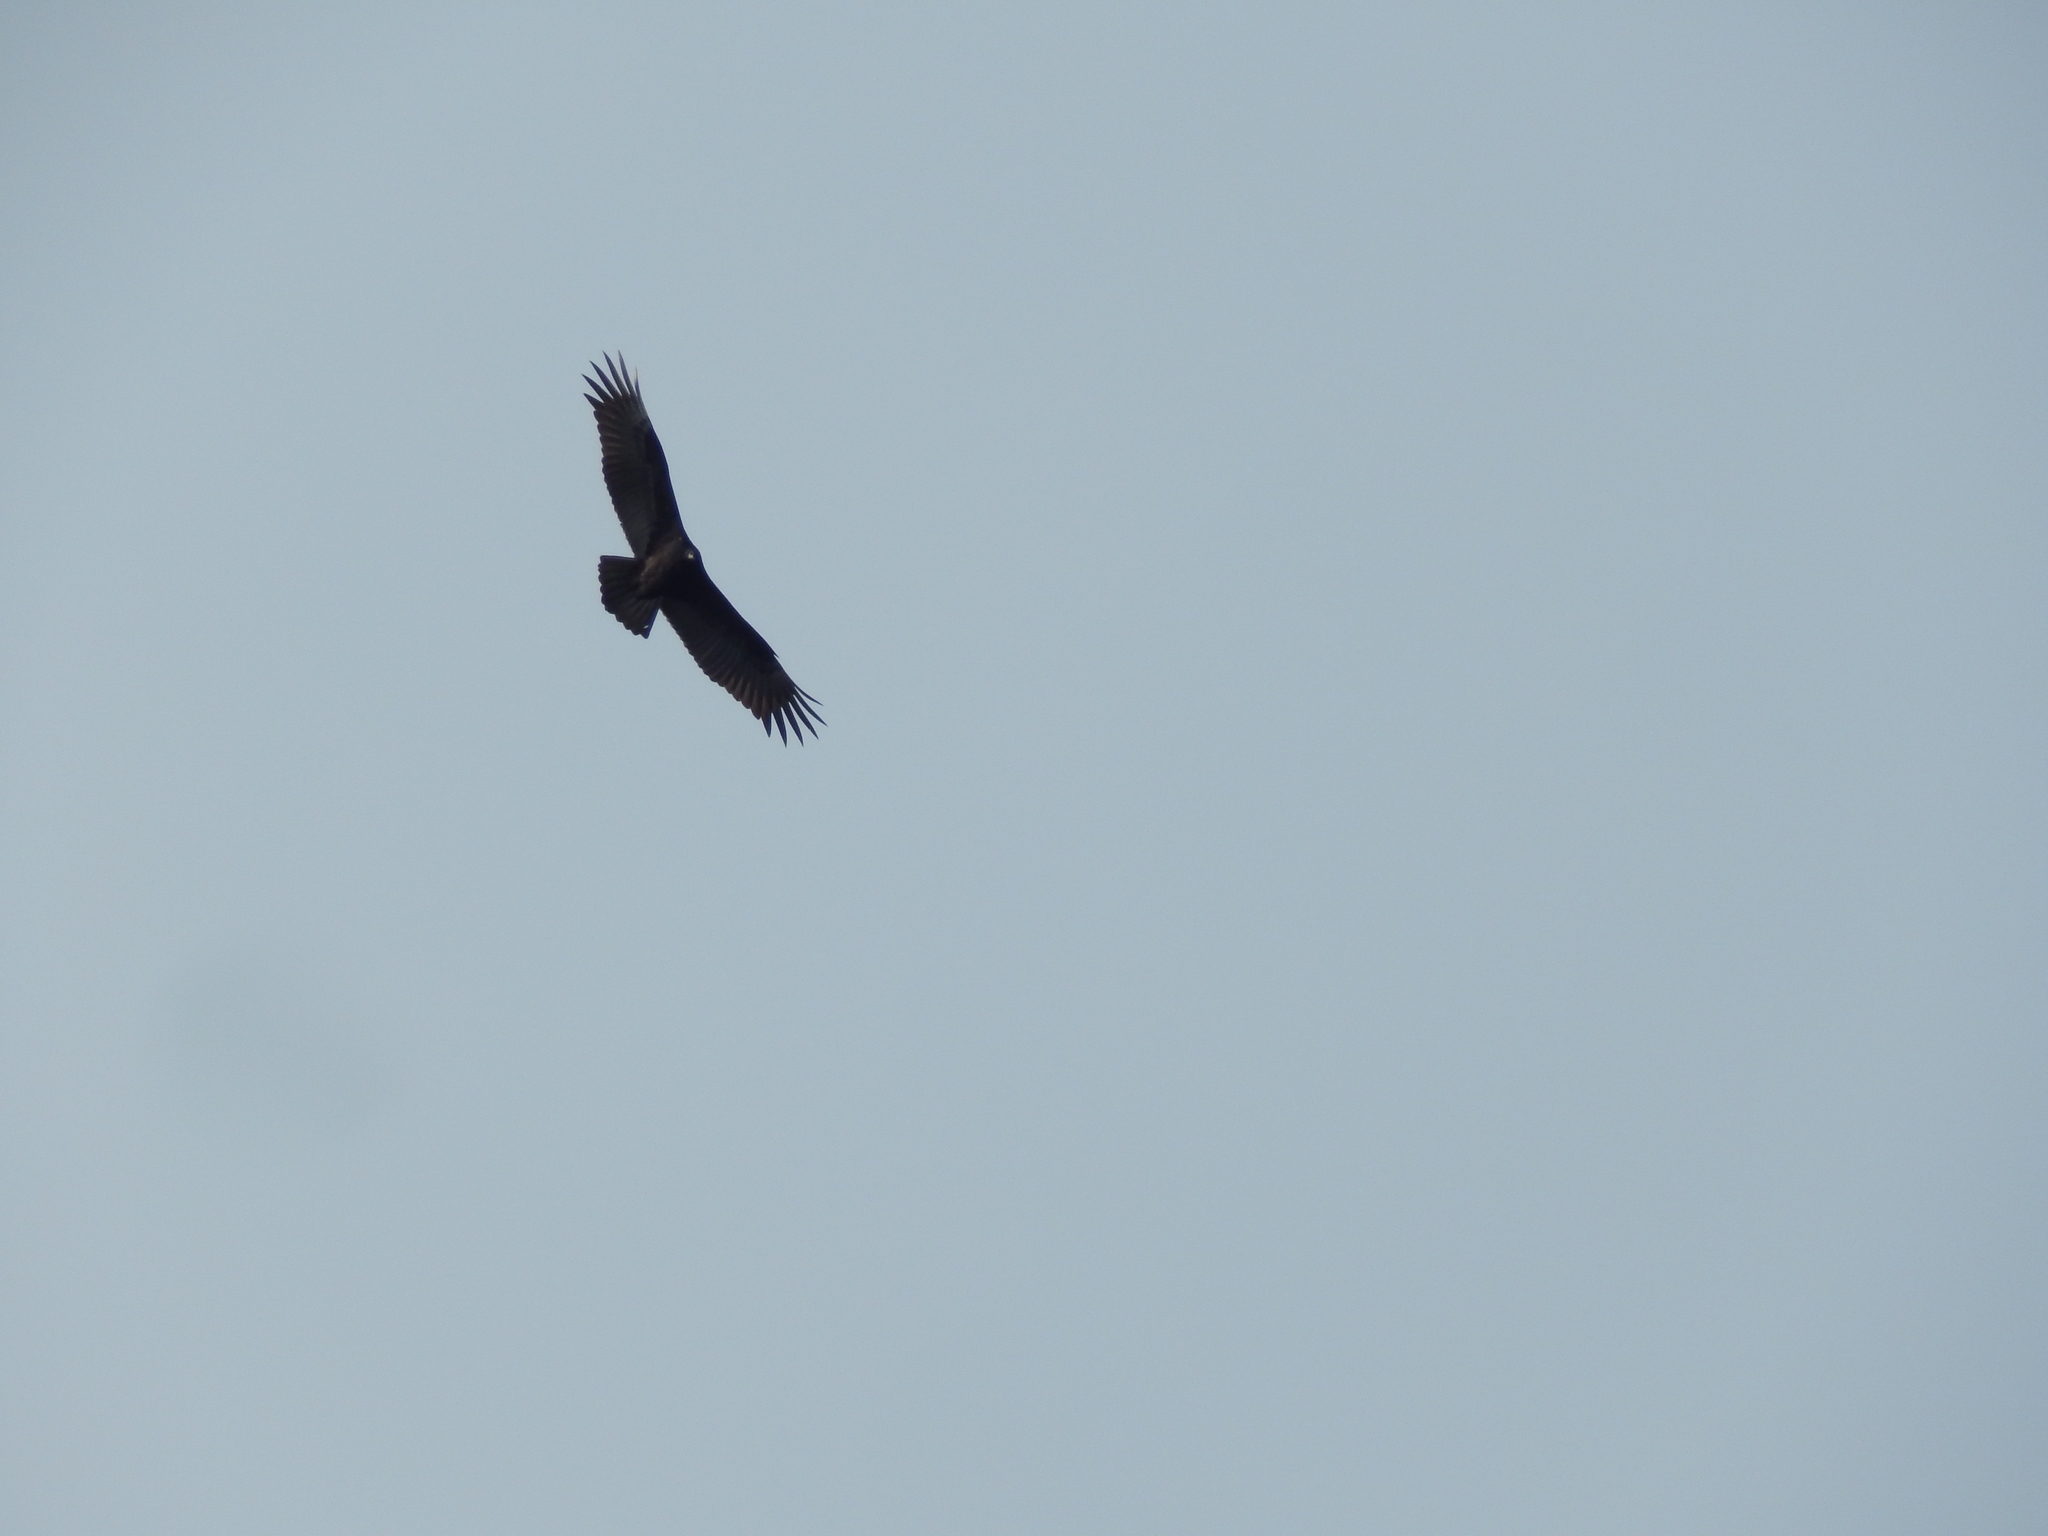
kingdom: Animalia
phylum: Chordata
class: Aves
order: Accipitriformes
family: Cathartidae
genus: Cathartes
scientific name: Cathartes aura
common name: Turkey vulture
